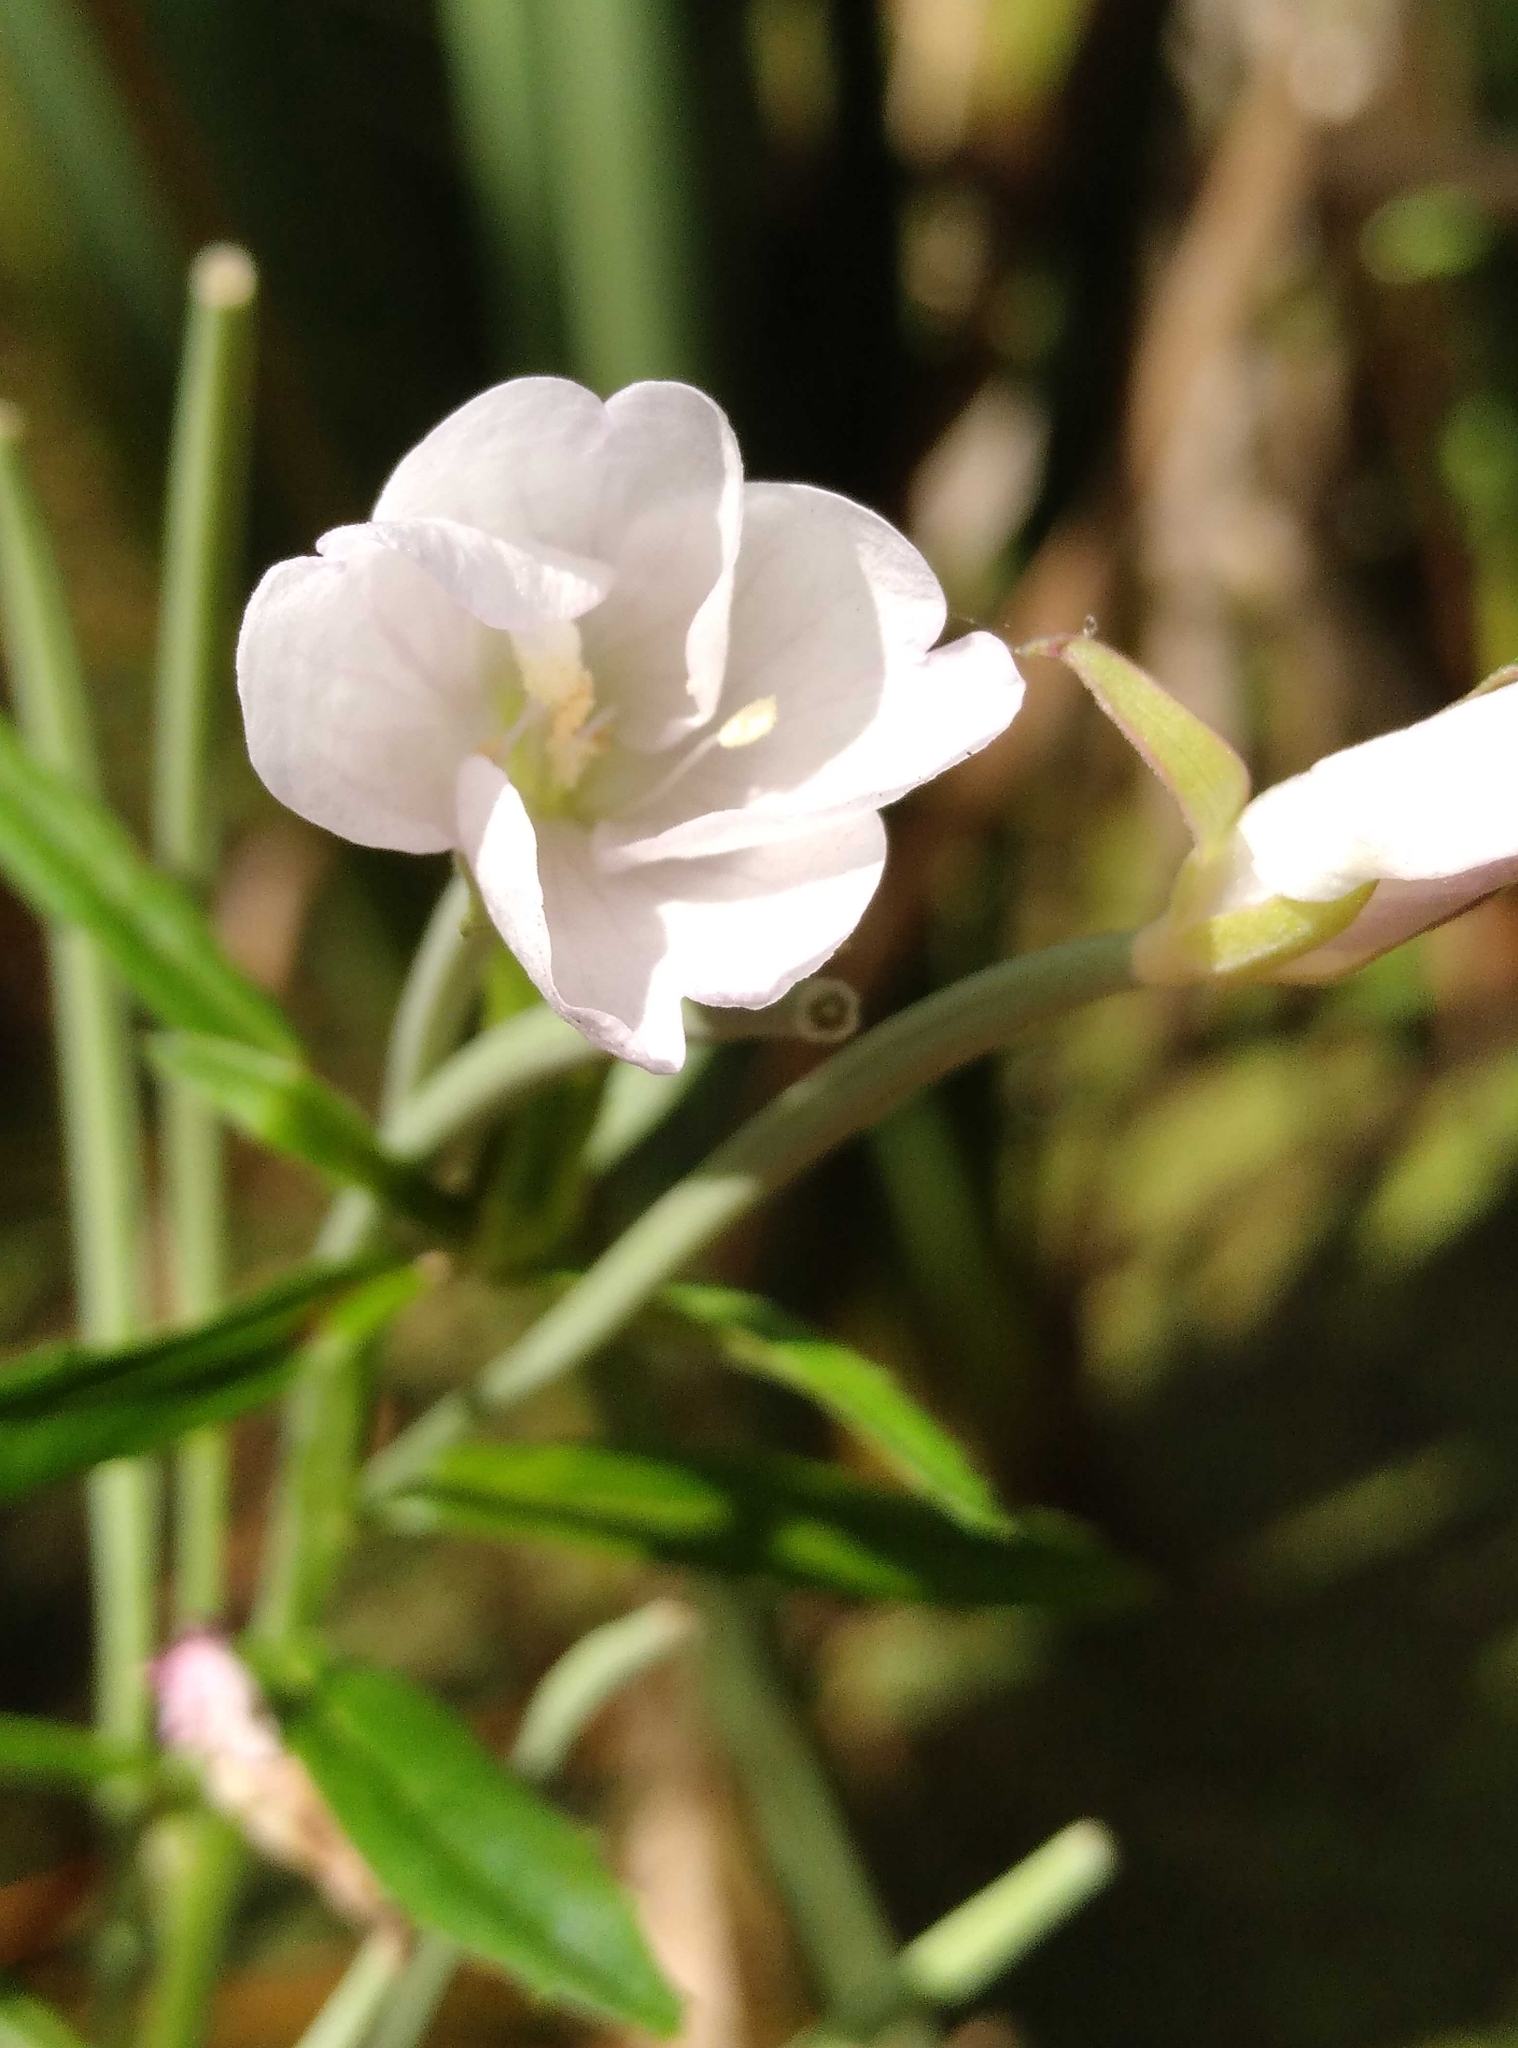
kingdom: Plantae
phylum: Tracheophyta
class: Magnoliopsida
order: Myrtales
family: Onagraceae
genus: Epilobium
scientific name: Epilobium pallidiflorum
